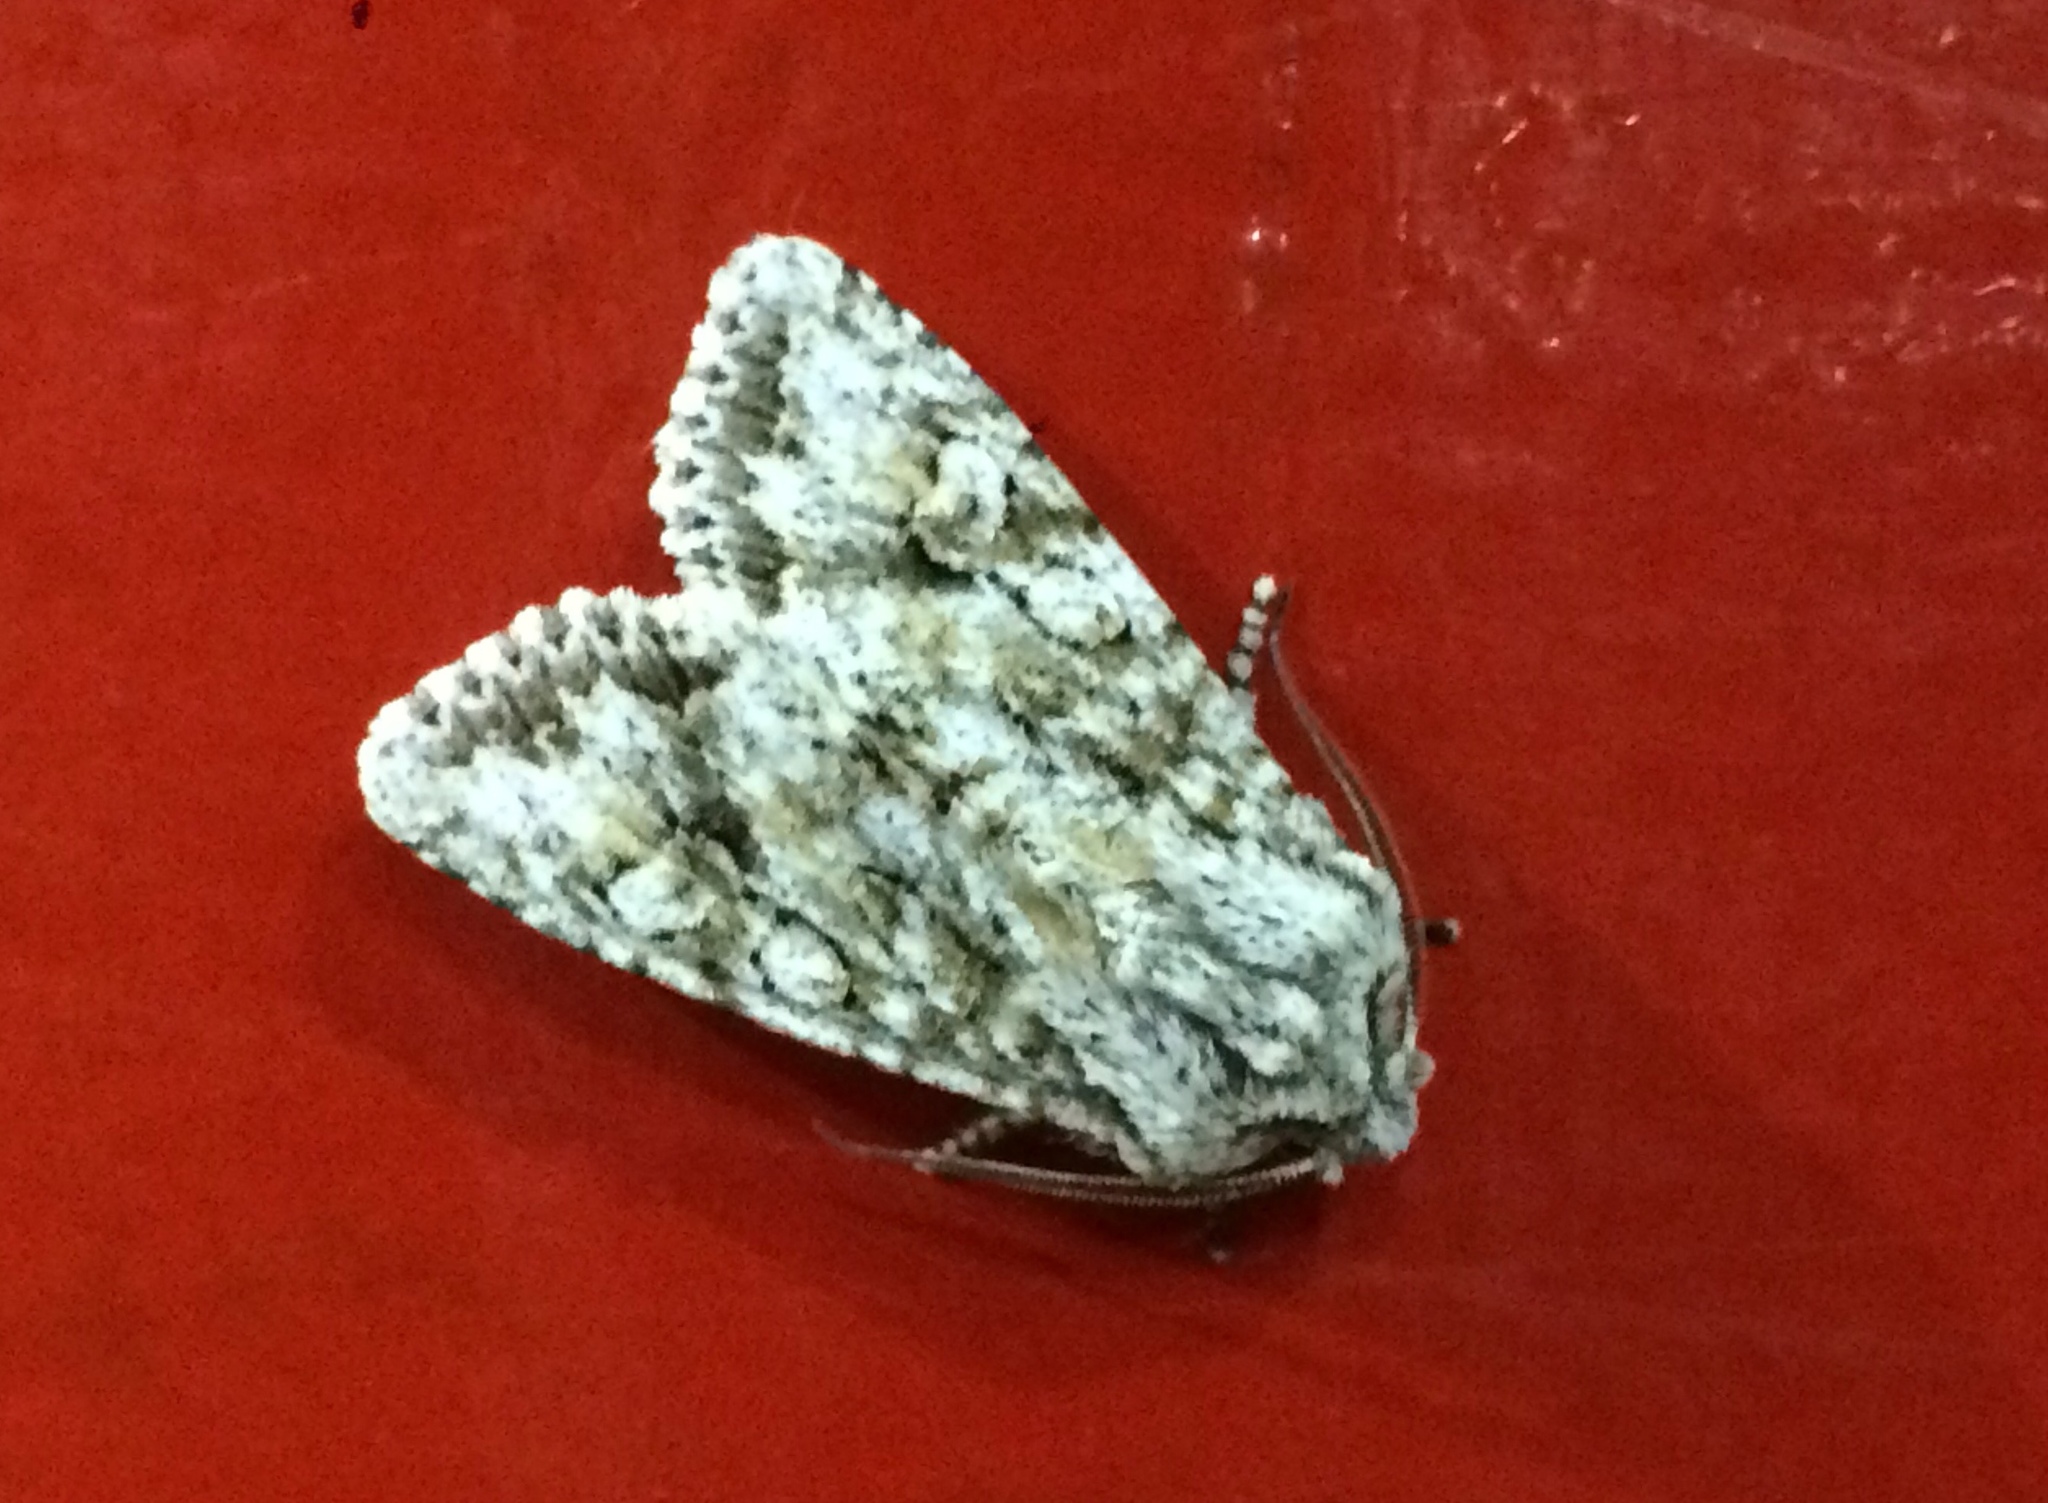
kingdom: Animalia
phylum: Arthropoda
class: Insecta
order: Lepidoptera
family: Noctuidae
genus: Egira
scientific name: Egira cognata
